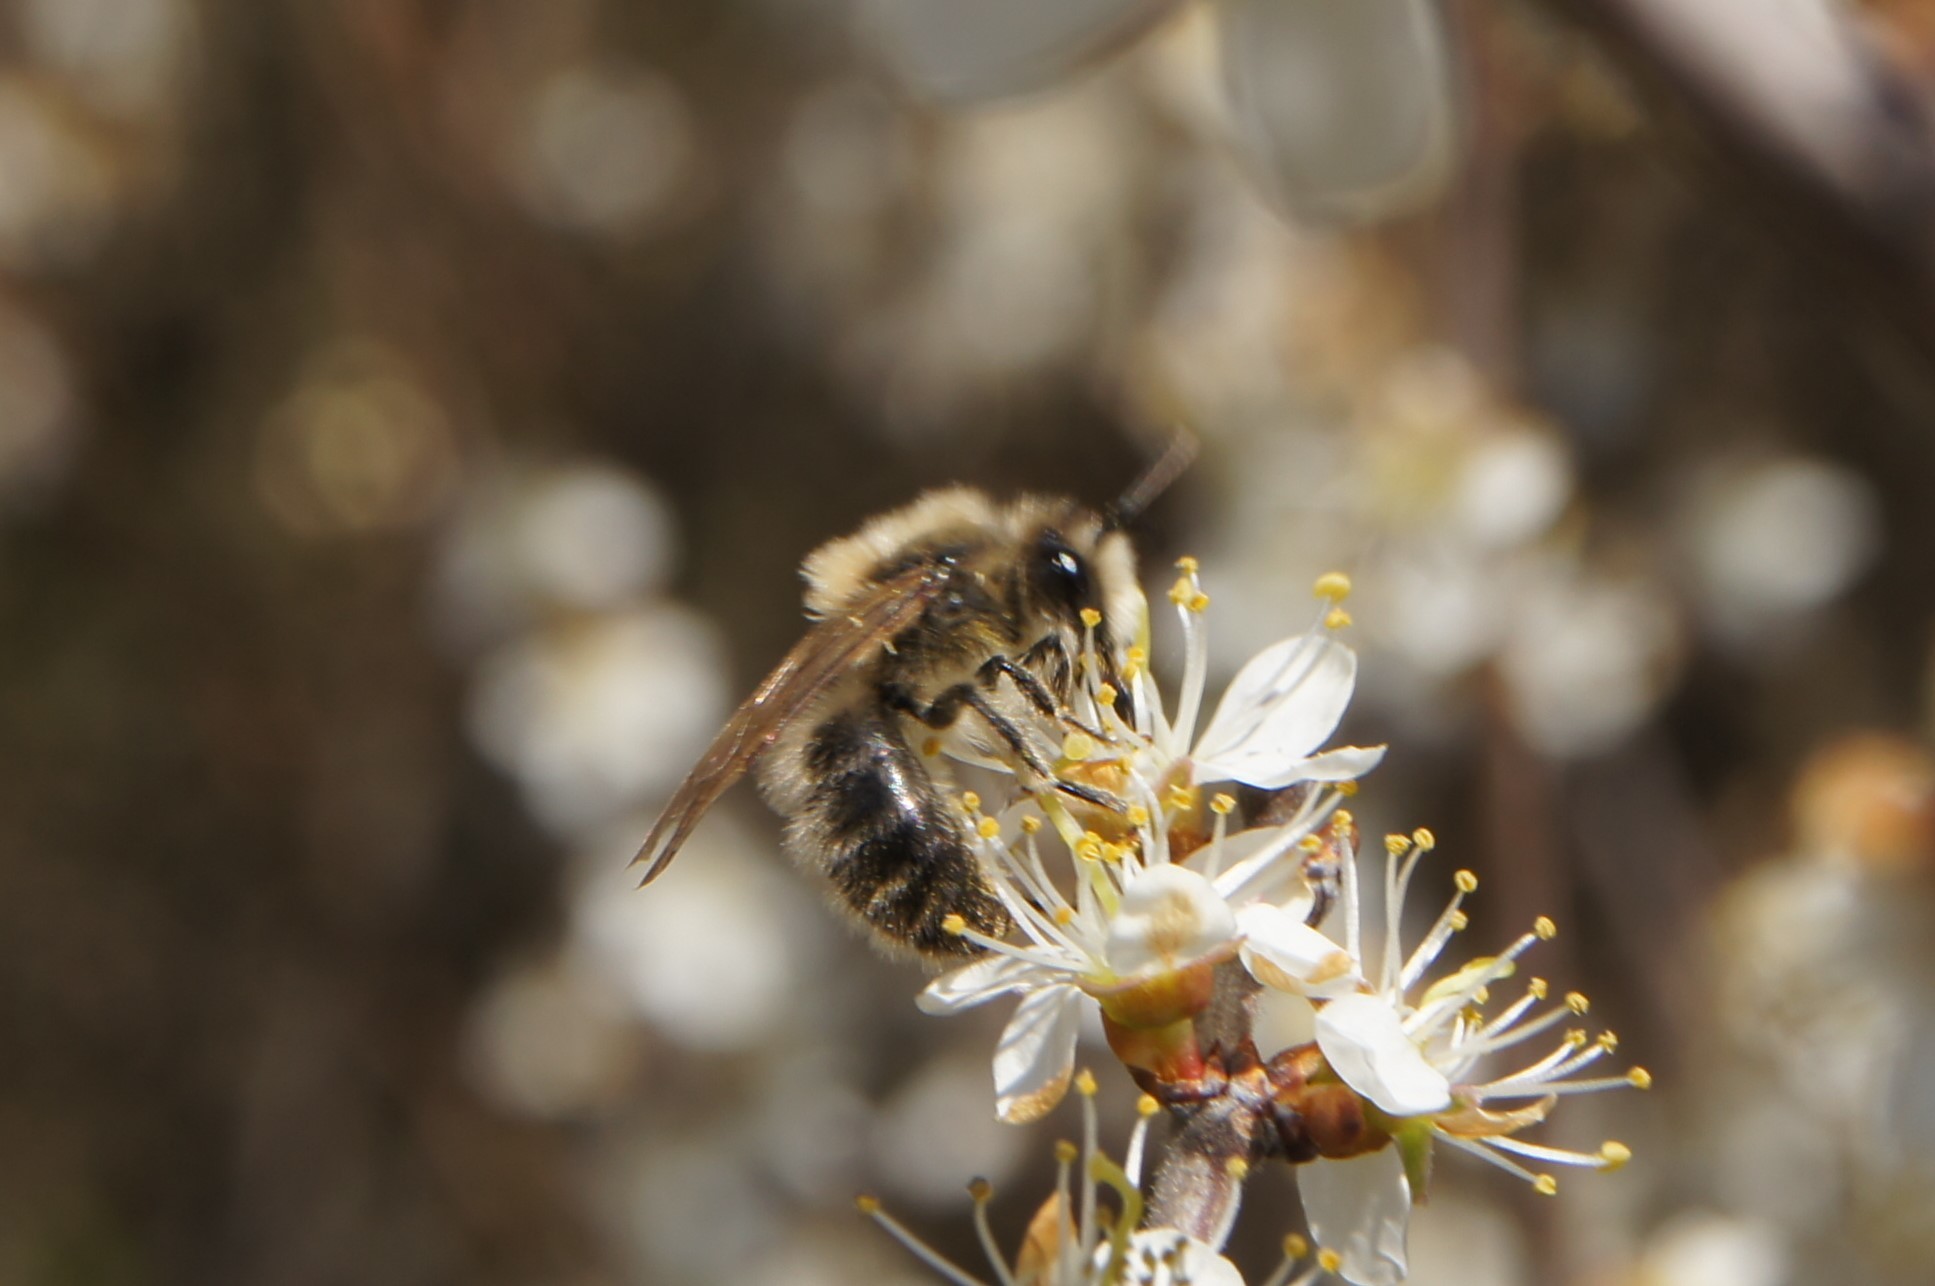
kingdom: Animalia
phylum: Arthropoda
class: Insecta
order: Hymenoptera
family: Colletidae
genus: Colletes
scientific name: Colletes cunicularius
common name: Early colletes
